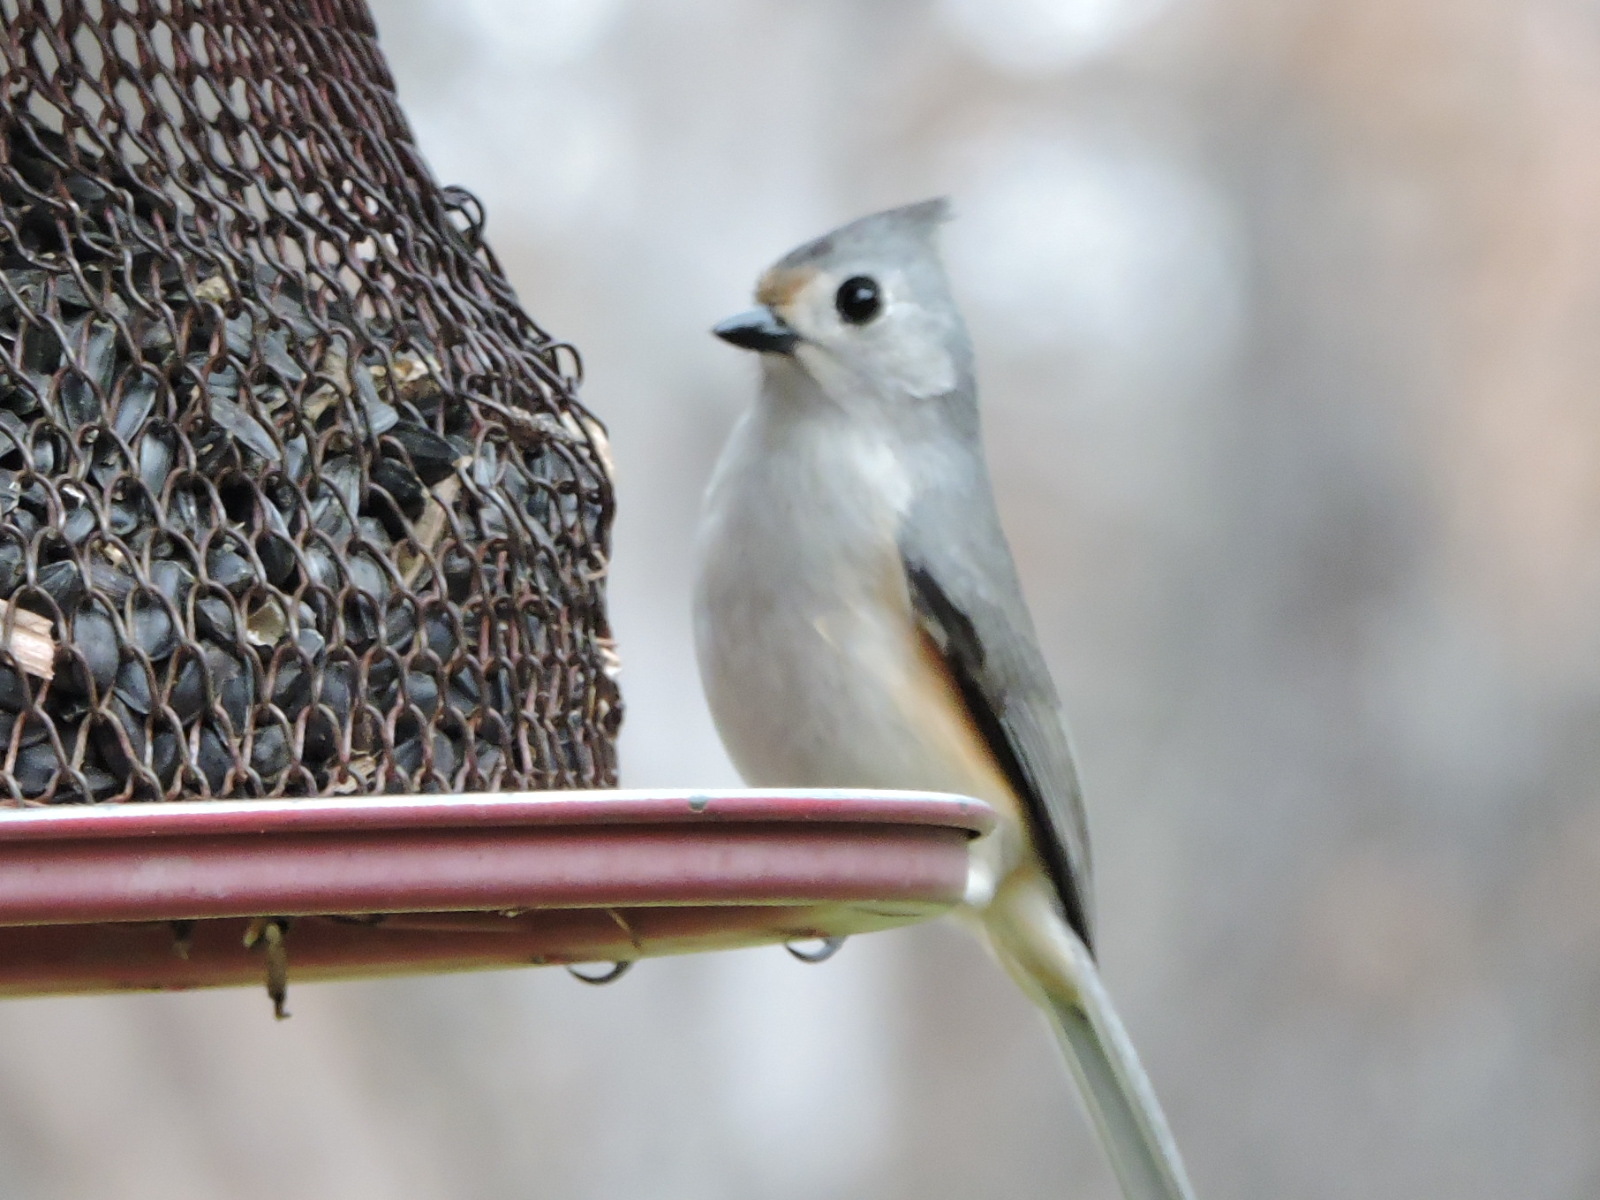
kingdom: Animalia
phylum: Chordata
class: Aves
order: Passeriformes
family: Paridae
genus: Baeolophus
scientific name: Baeolophus
